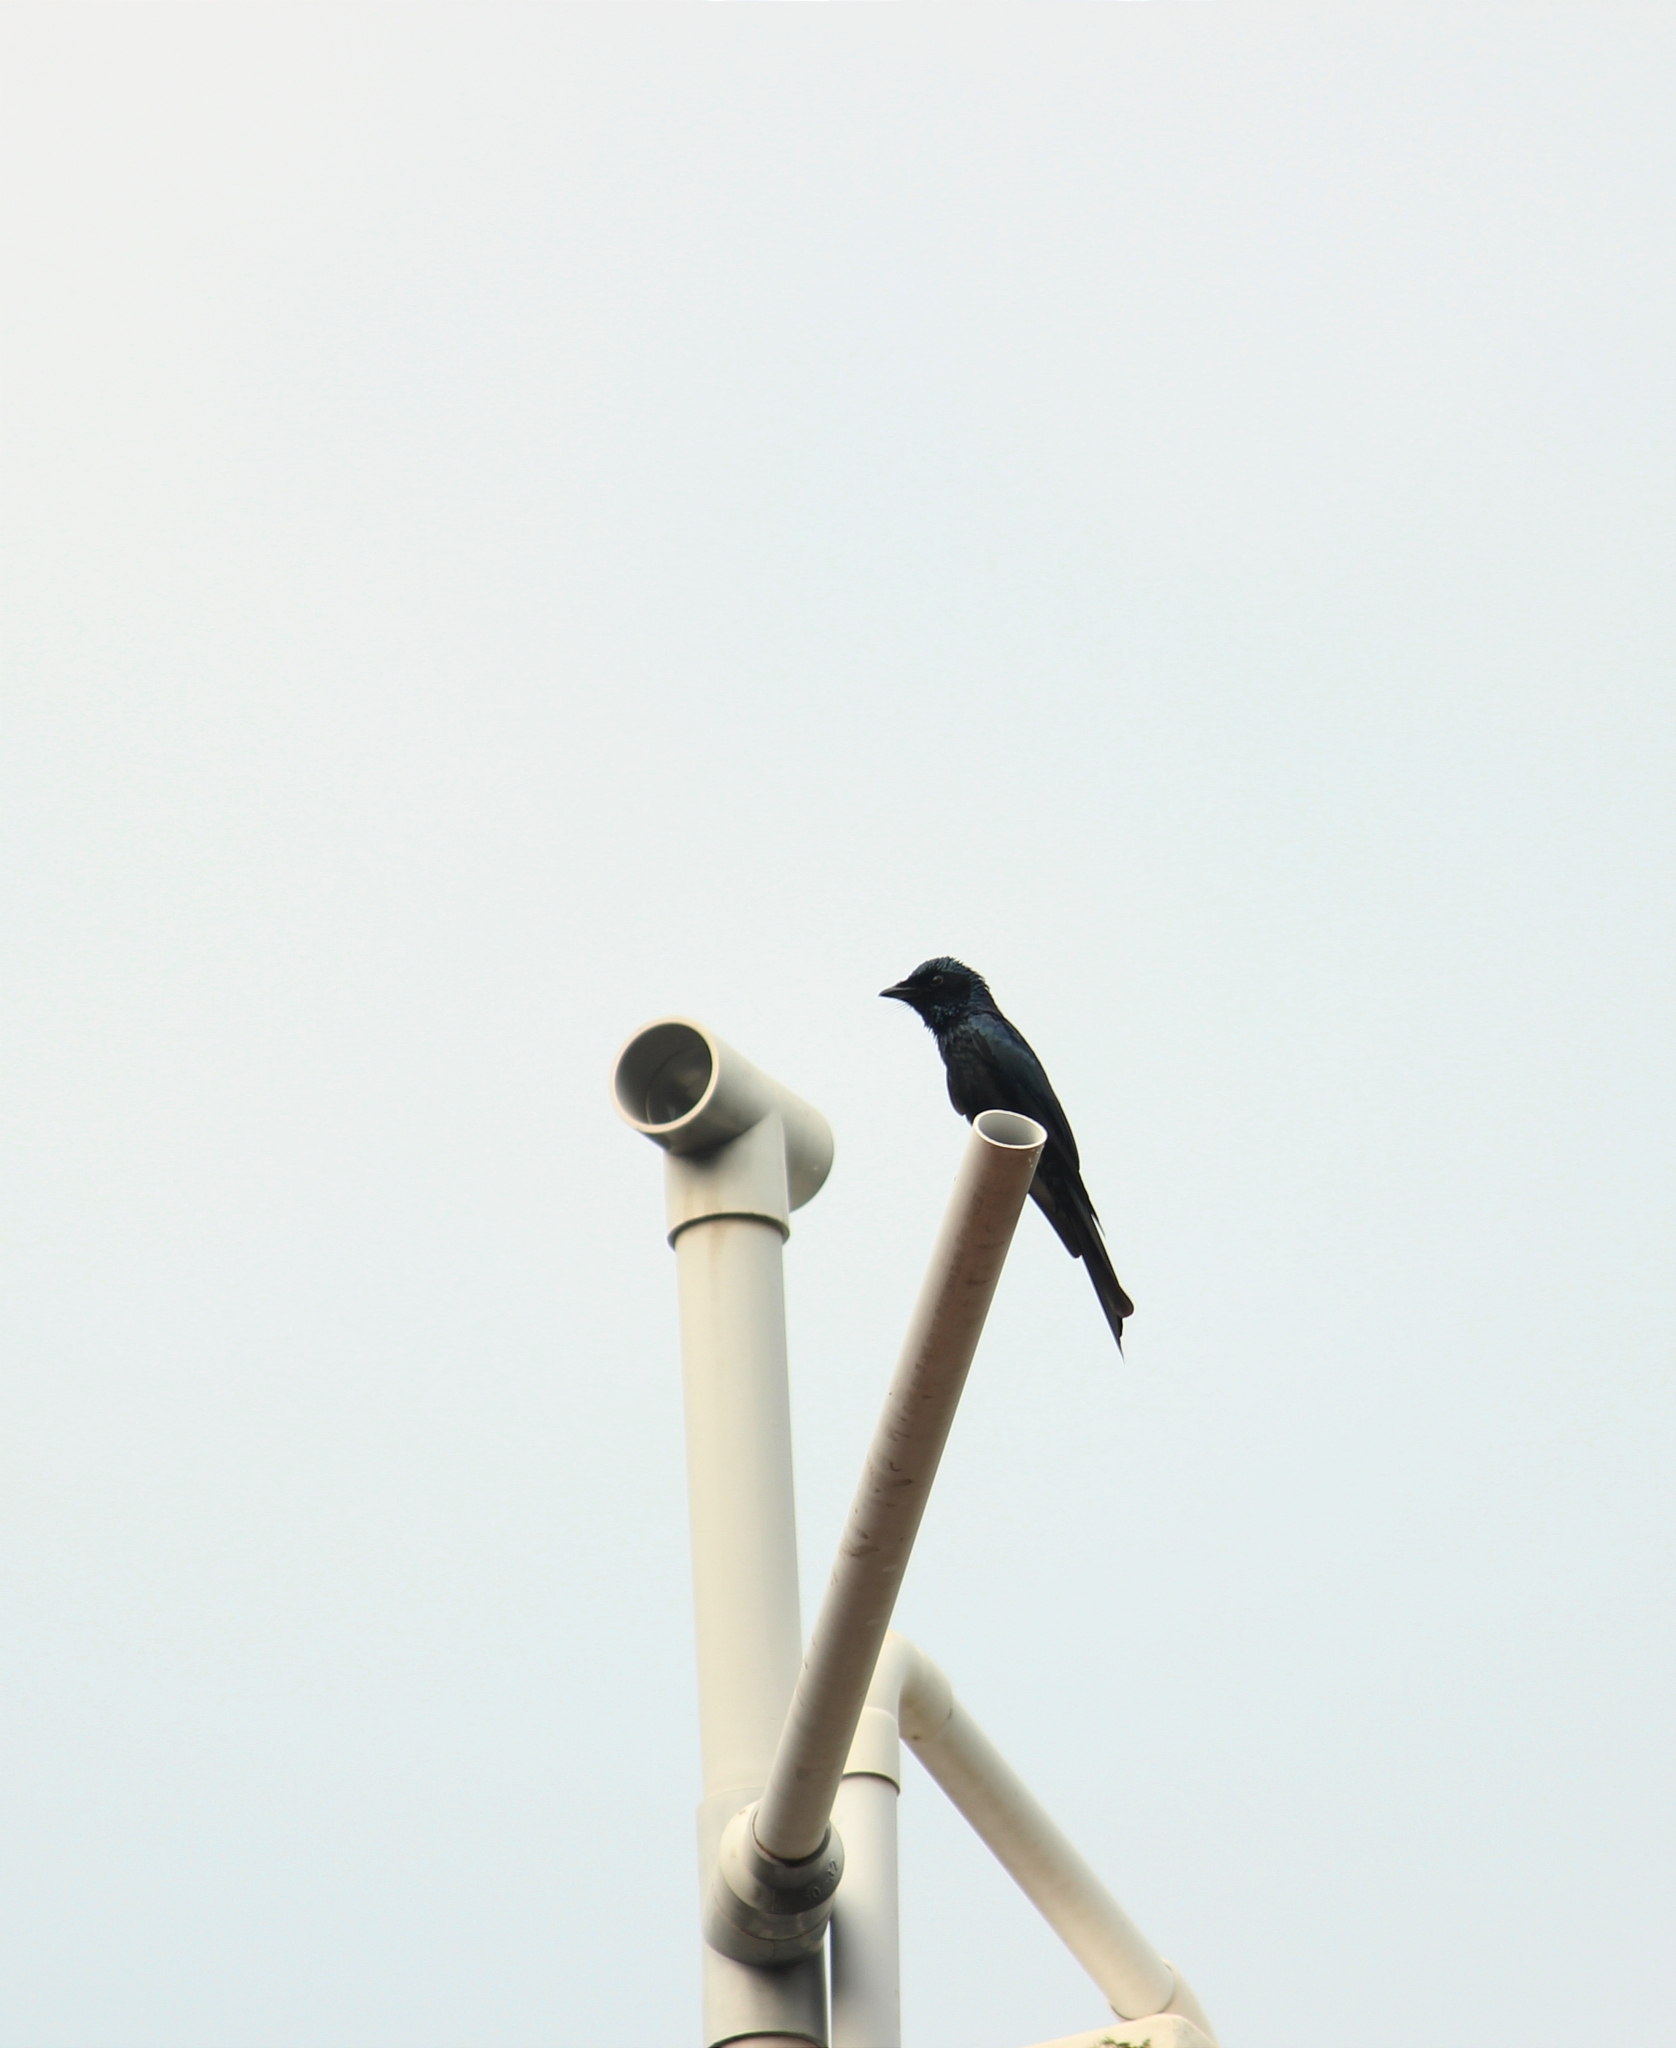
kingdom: Animalia
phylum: Chordata
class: Aves
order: Passeriformes
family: Dicruridae
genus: Dicrurus
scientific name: Dicrurus aeneus
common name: Bronzed drongo
